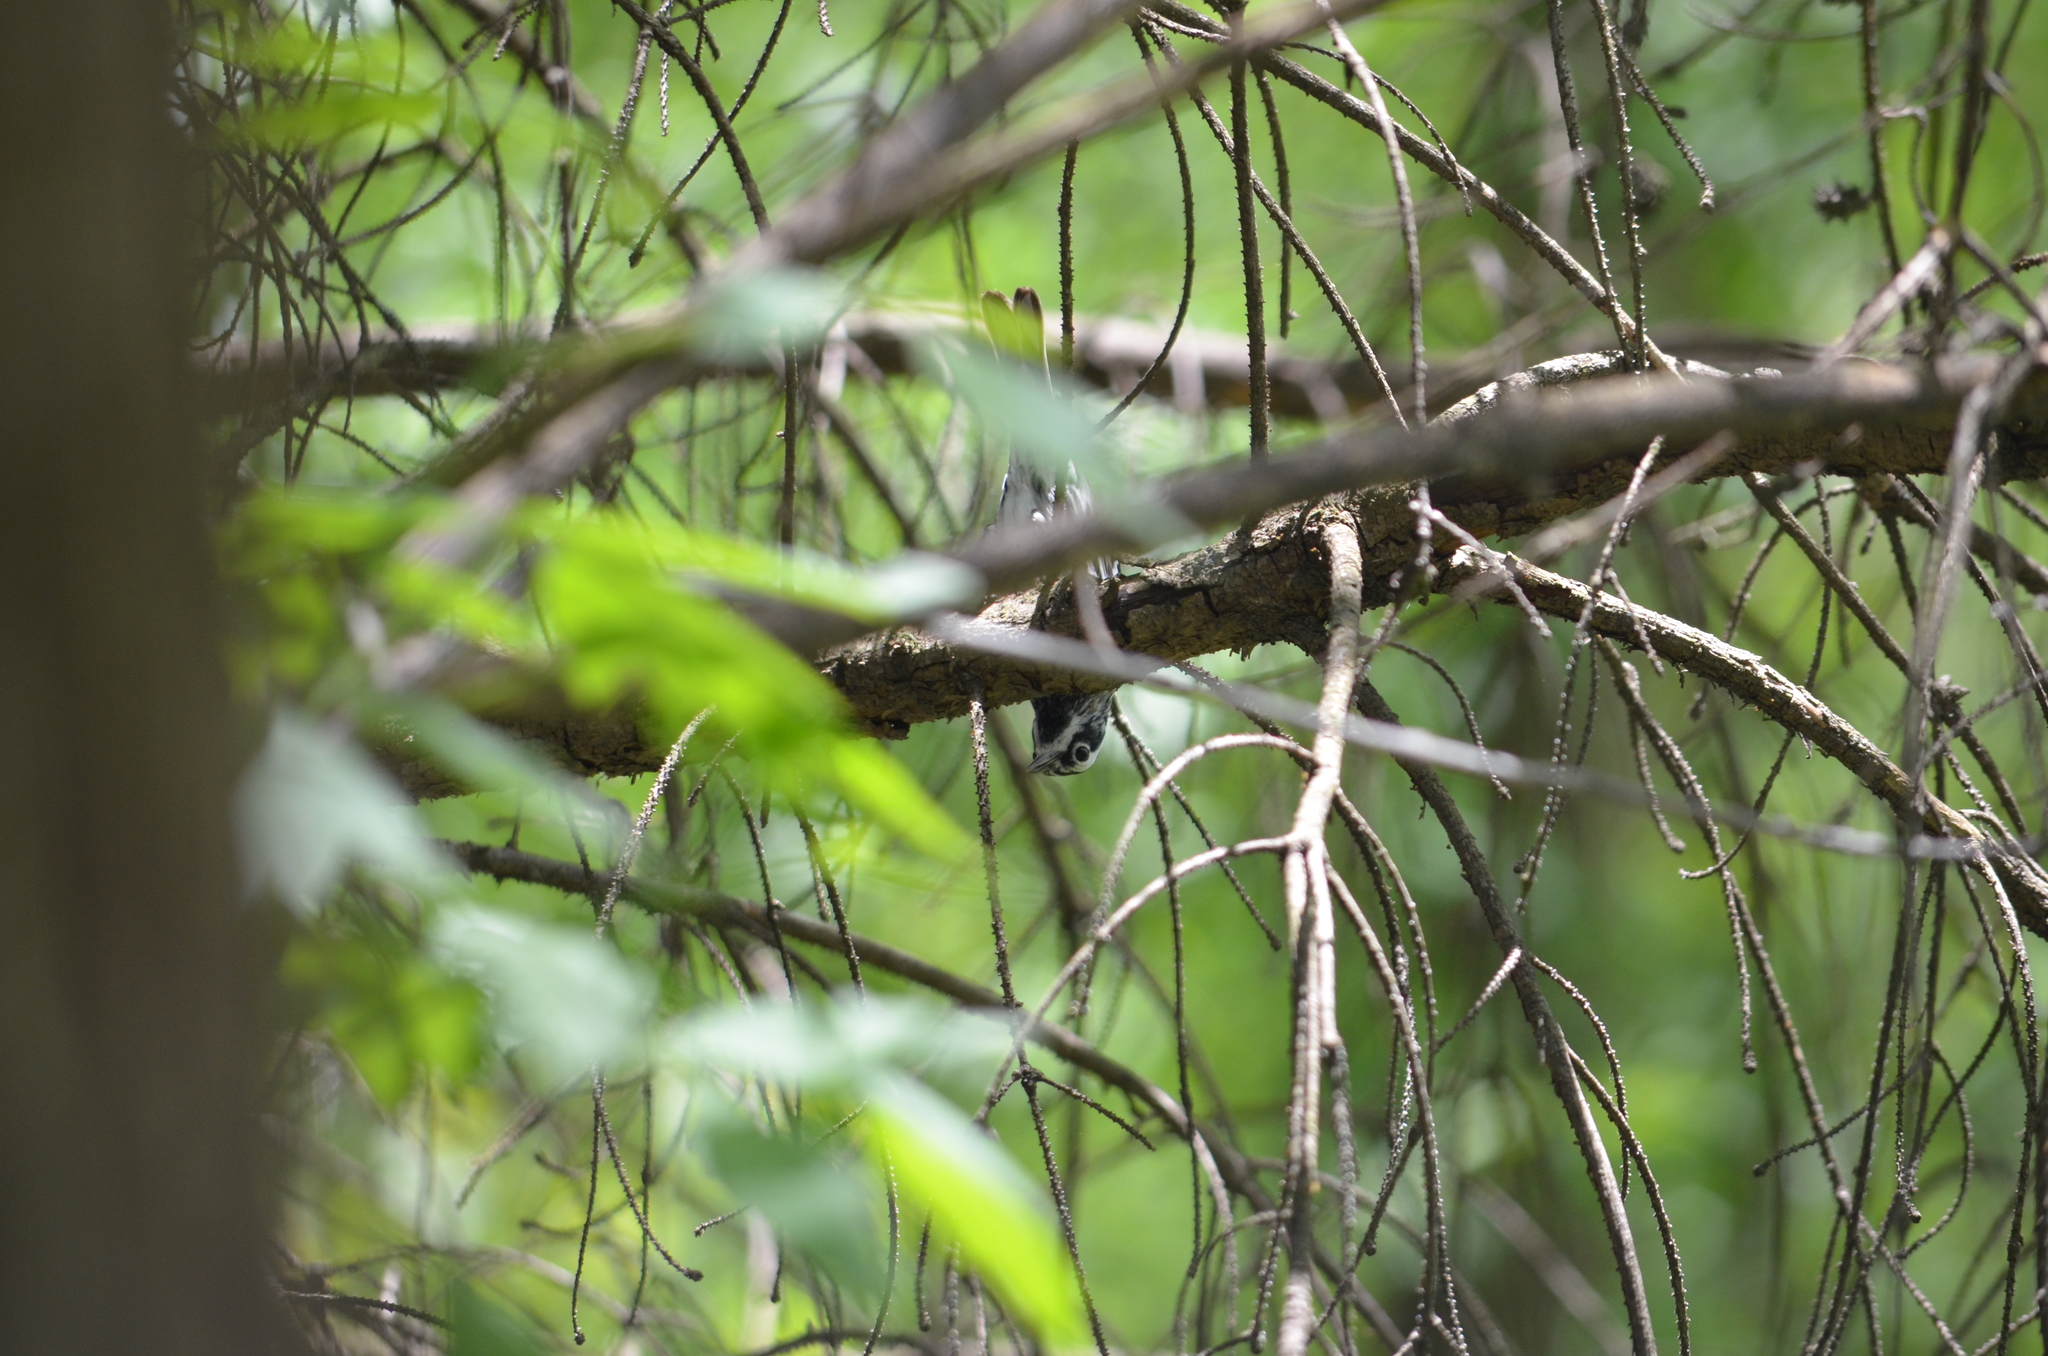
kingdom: Animalia
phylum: Chordata
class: Aves
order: Passeriformes
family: Parulidae
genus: Mniotilta
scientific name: Mniotilta varia
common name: Black-and-white warbler
